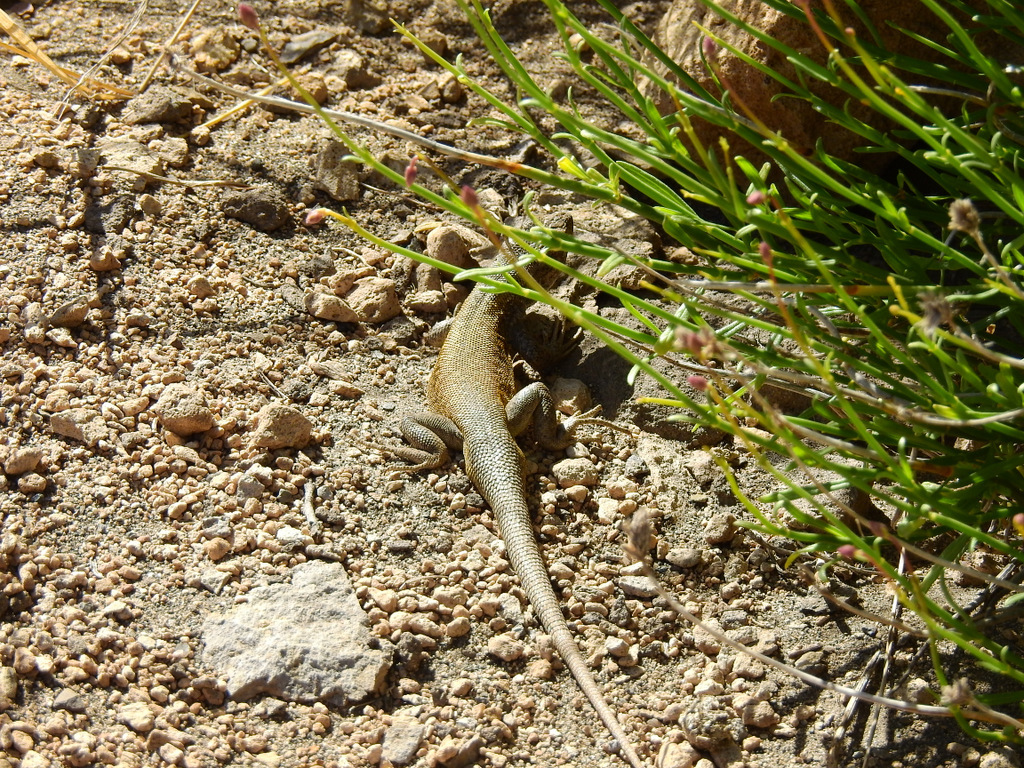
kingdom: Animalia
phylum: Chordata
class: Squamata
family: Liolaemidae
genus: Liolaemus
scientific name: Liolaemus smaug
